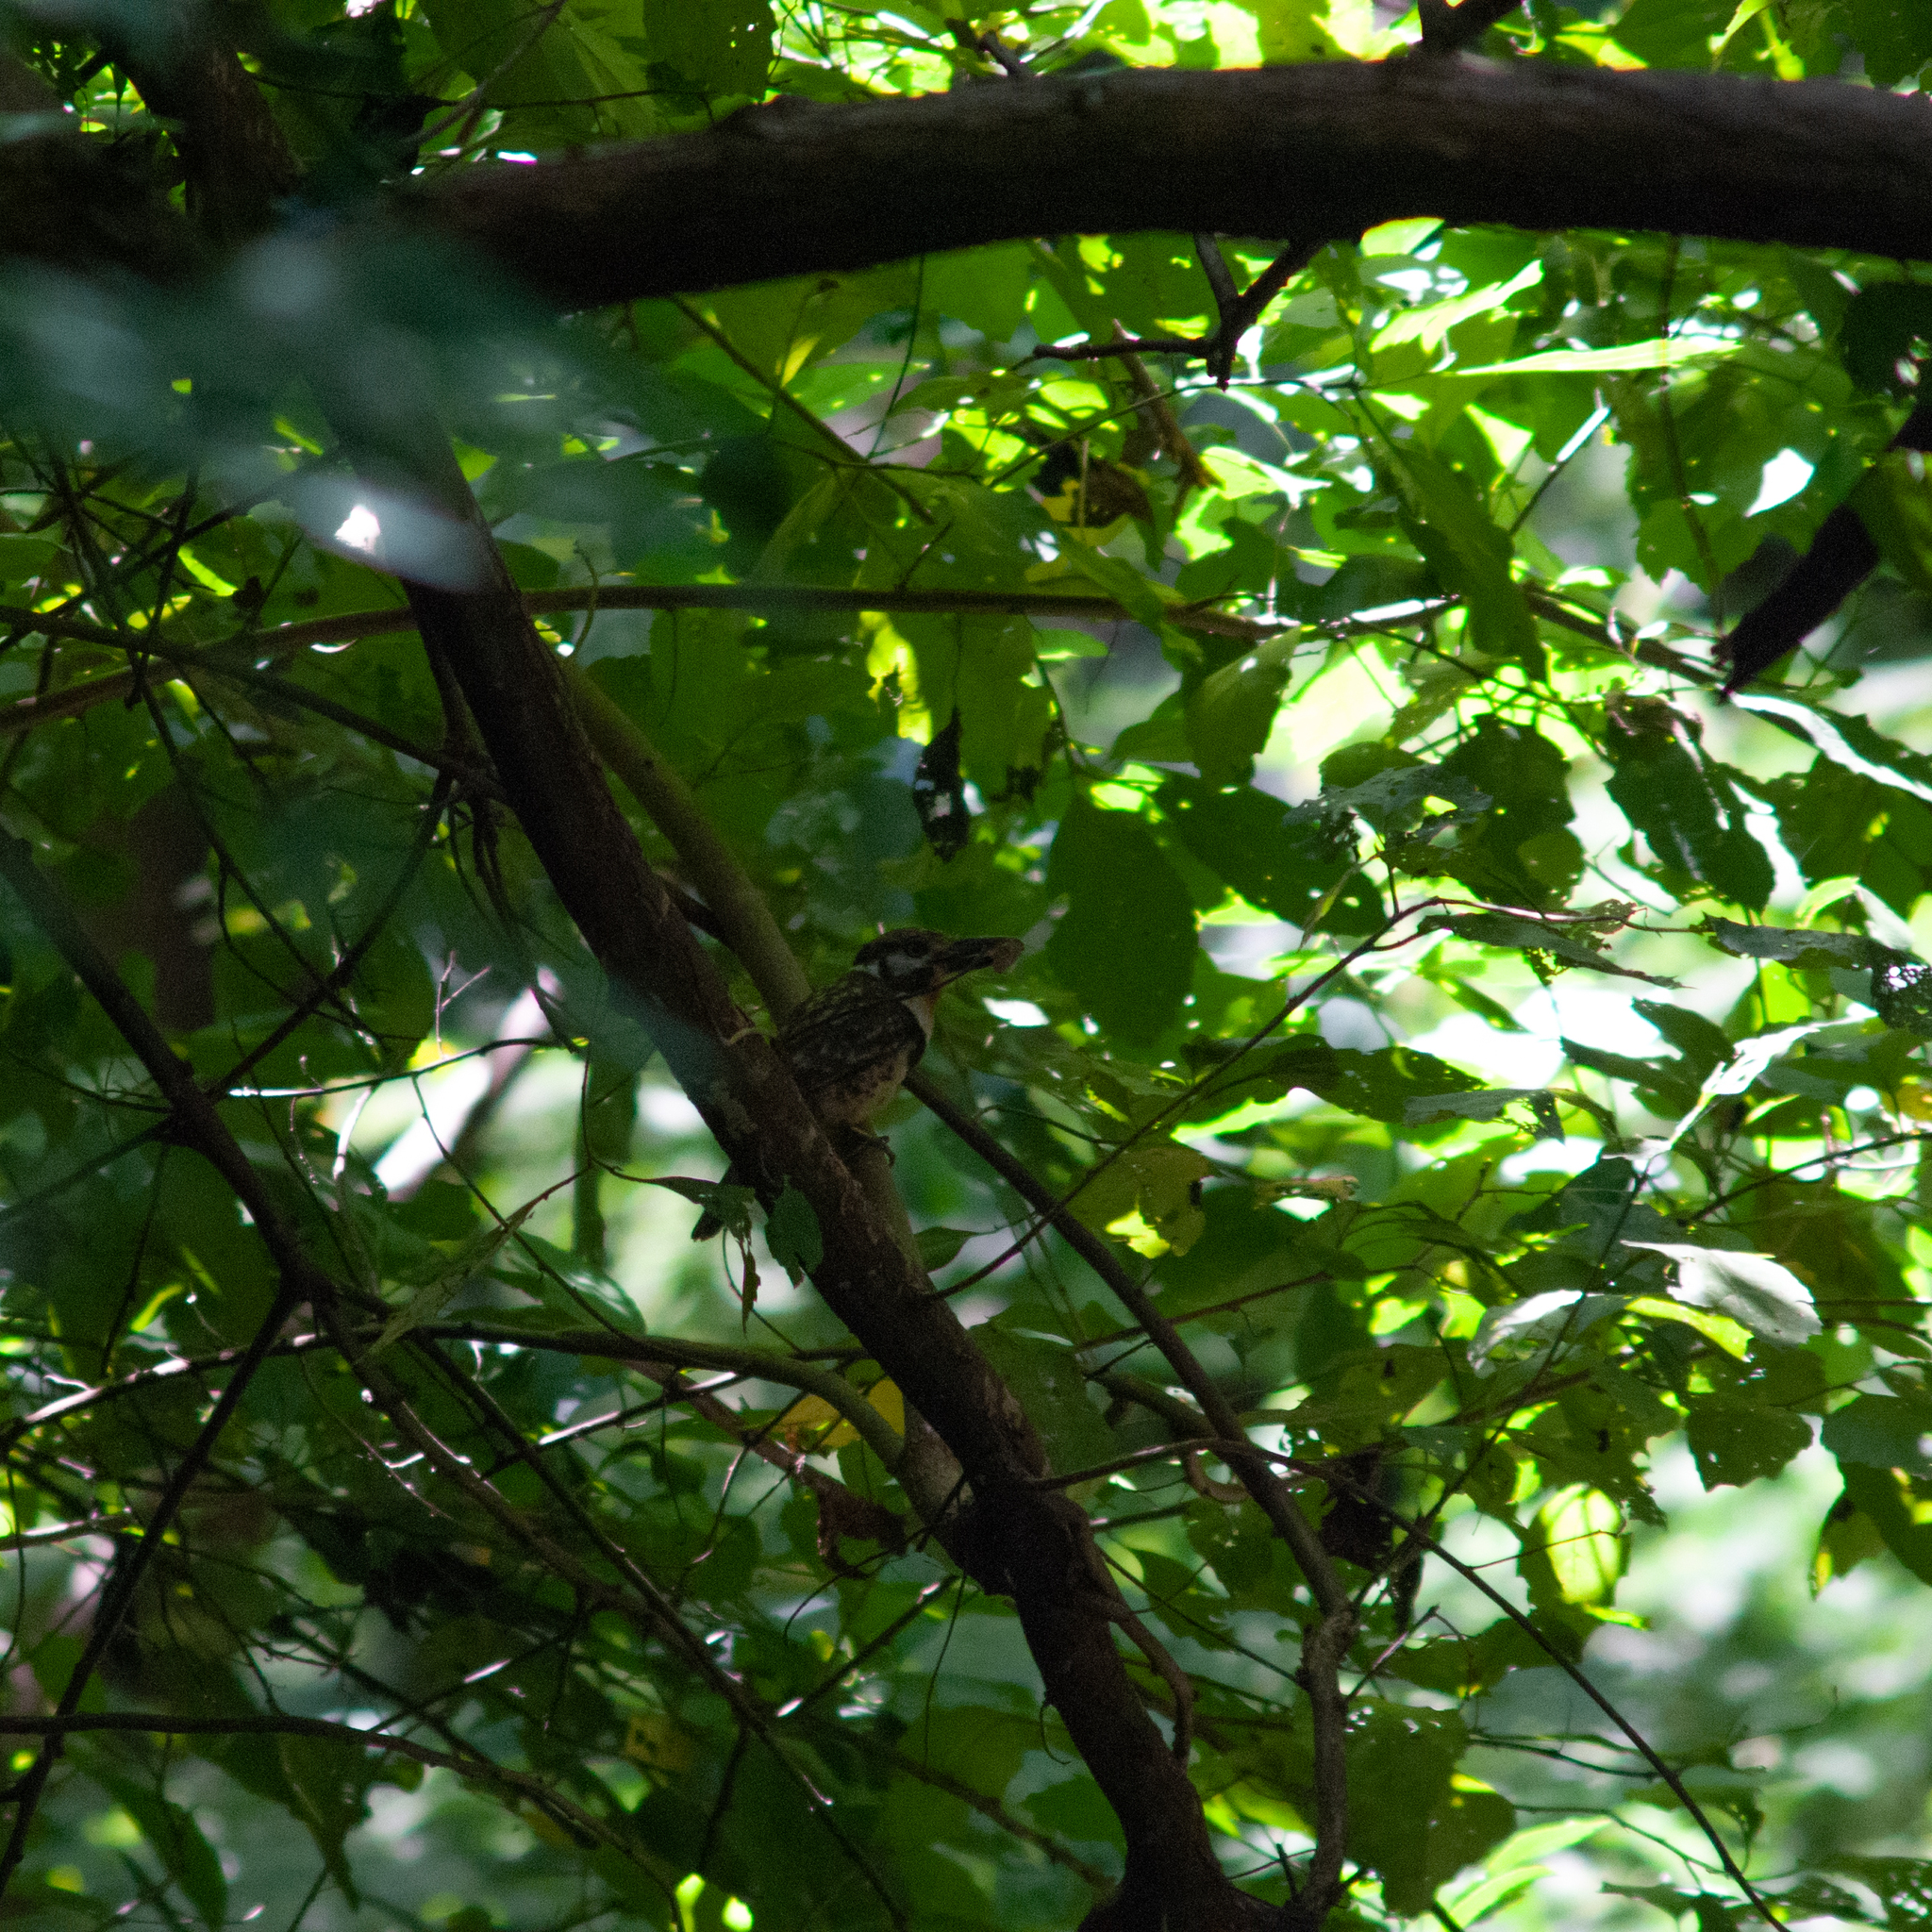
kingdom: Animalia
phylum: Chordata
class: Aves
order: Piciformes
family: Bucconidae
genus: Hypnelus
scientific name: Hypnelus ruficollis
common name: Russet-throated puffbird
